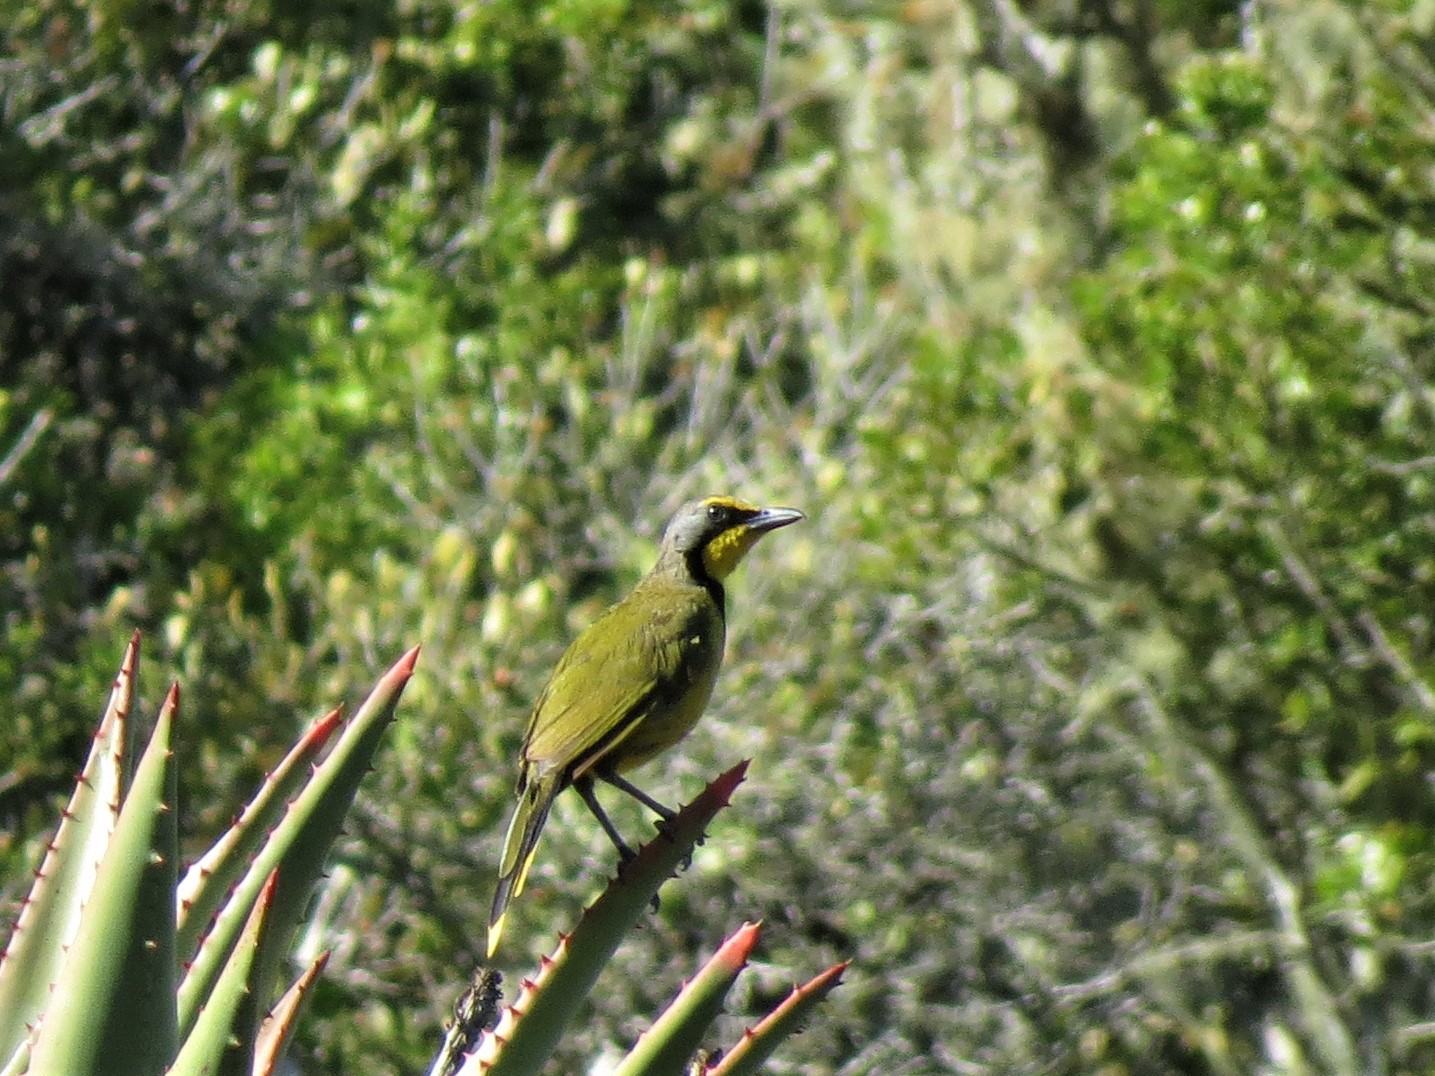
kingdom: Animalia
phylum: Chordata
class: Aves
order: Passeriformes
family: Malaconotidae
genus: Telophorus
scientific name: Telophorus zeylonus
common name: Bokmakierie
